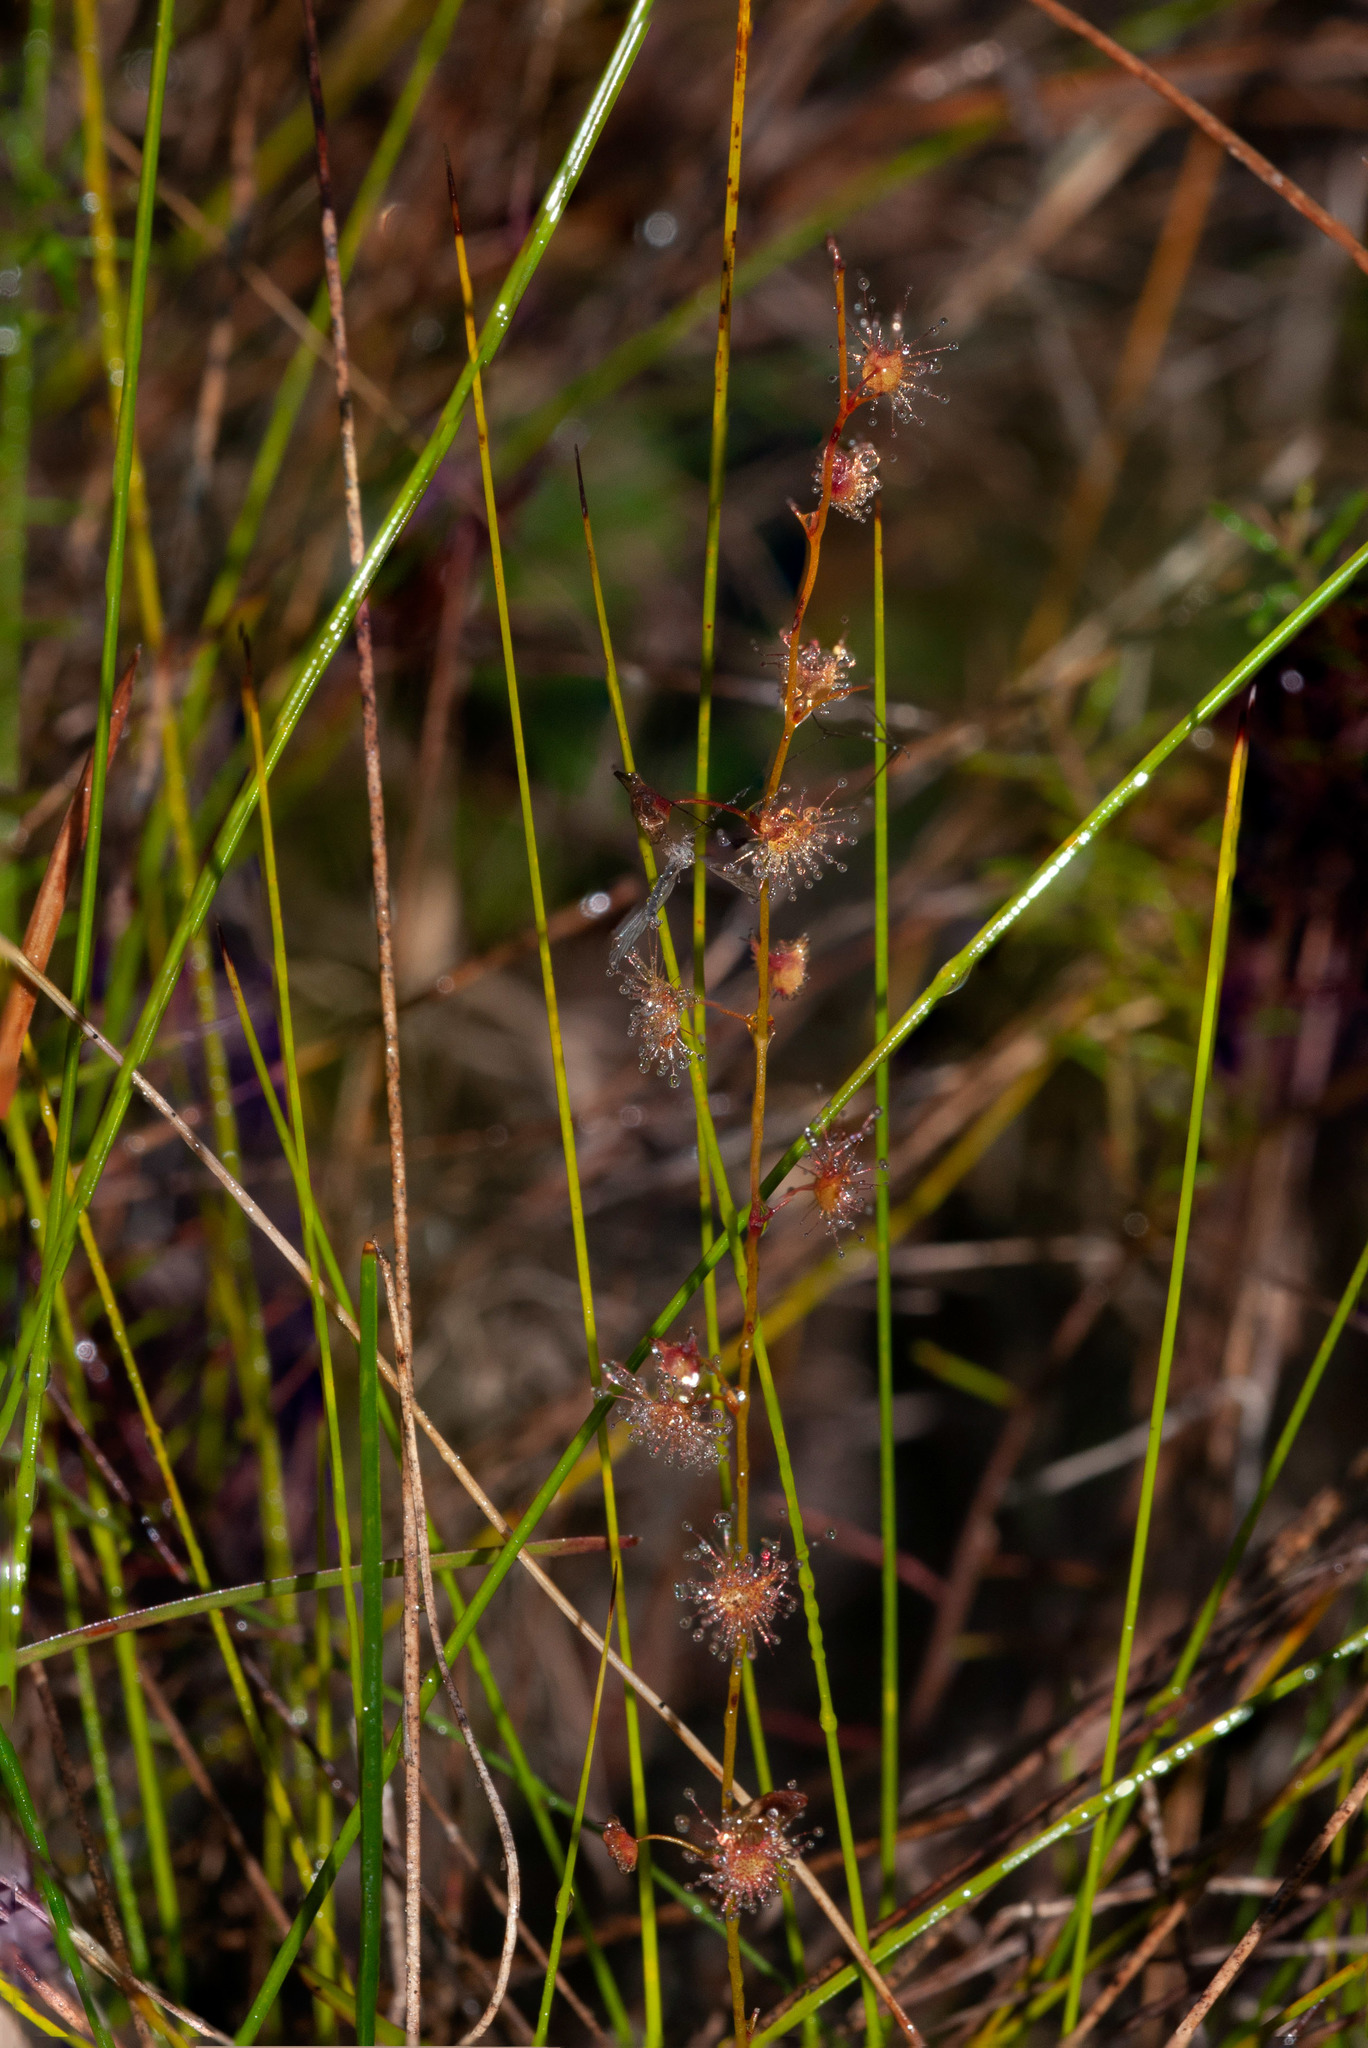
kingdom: Plantae
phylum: Tracheophyta
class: Magnoliopsida
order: Caryophyllales
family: Droseraceae
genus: Drosera
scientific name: Drosera peltata
